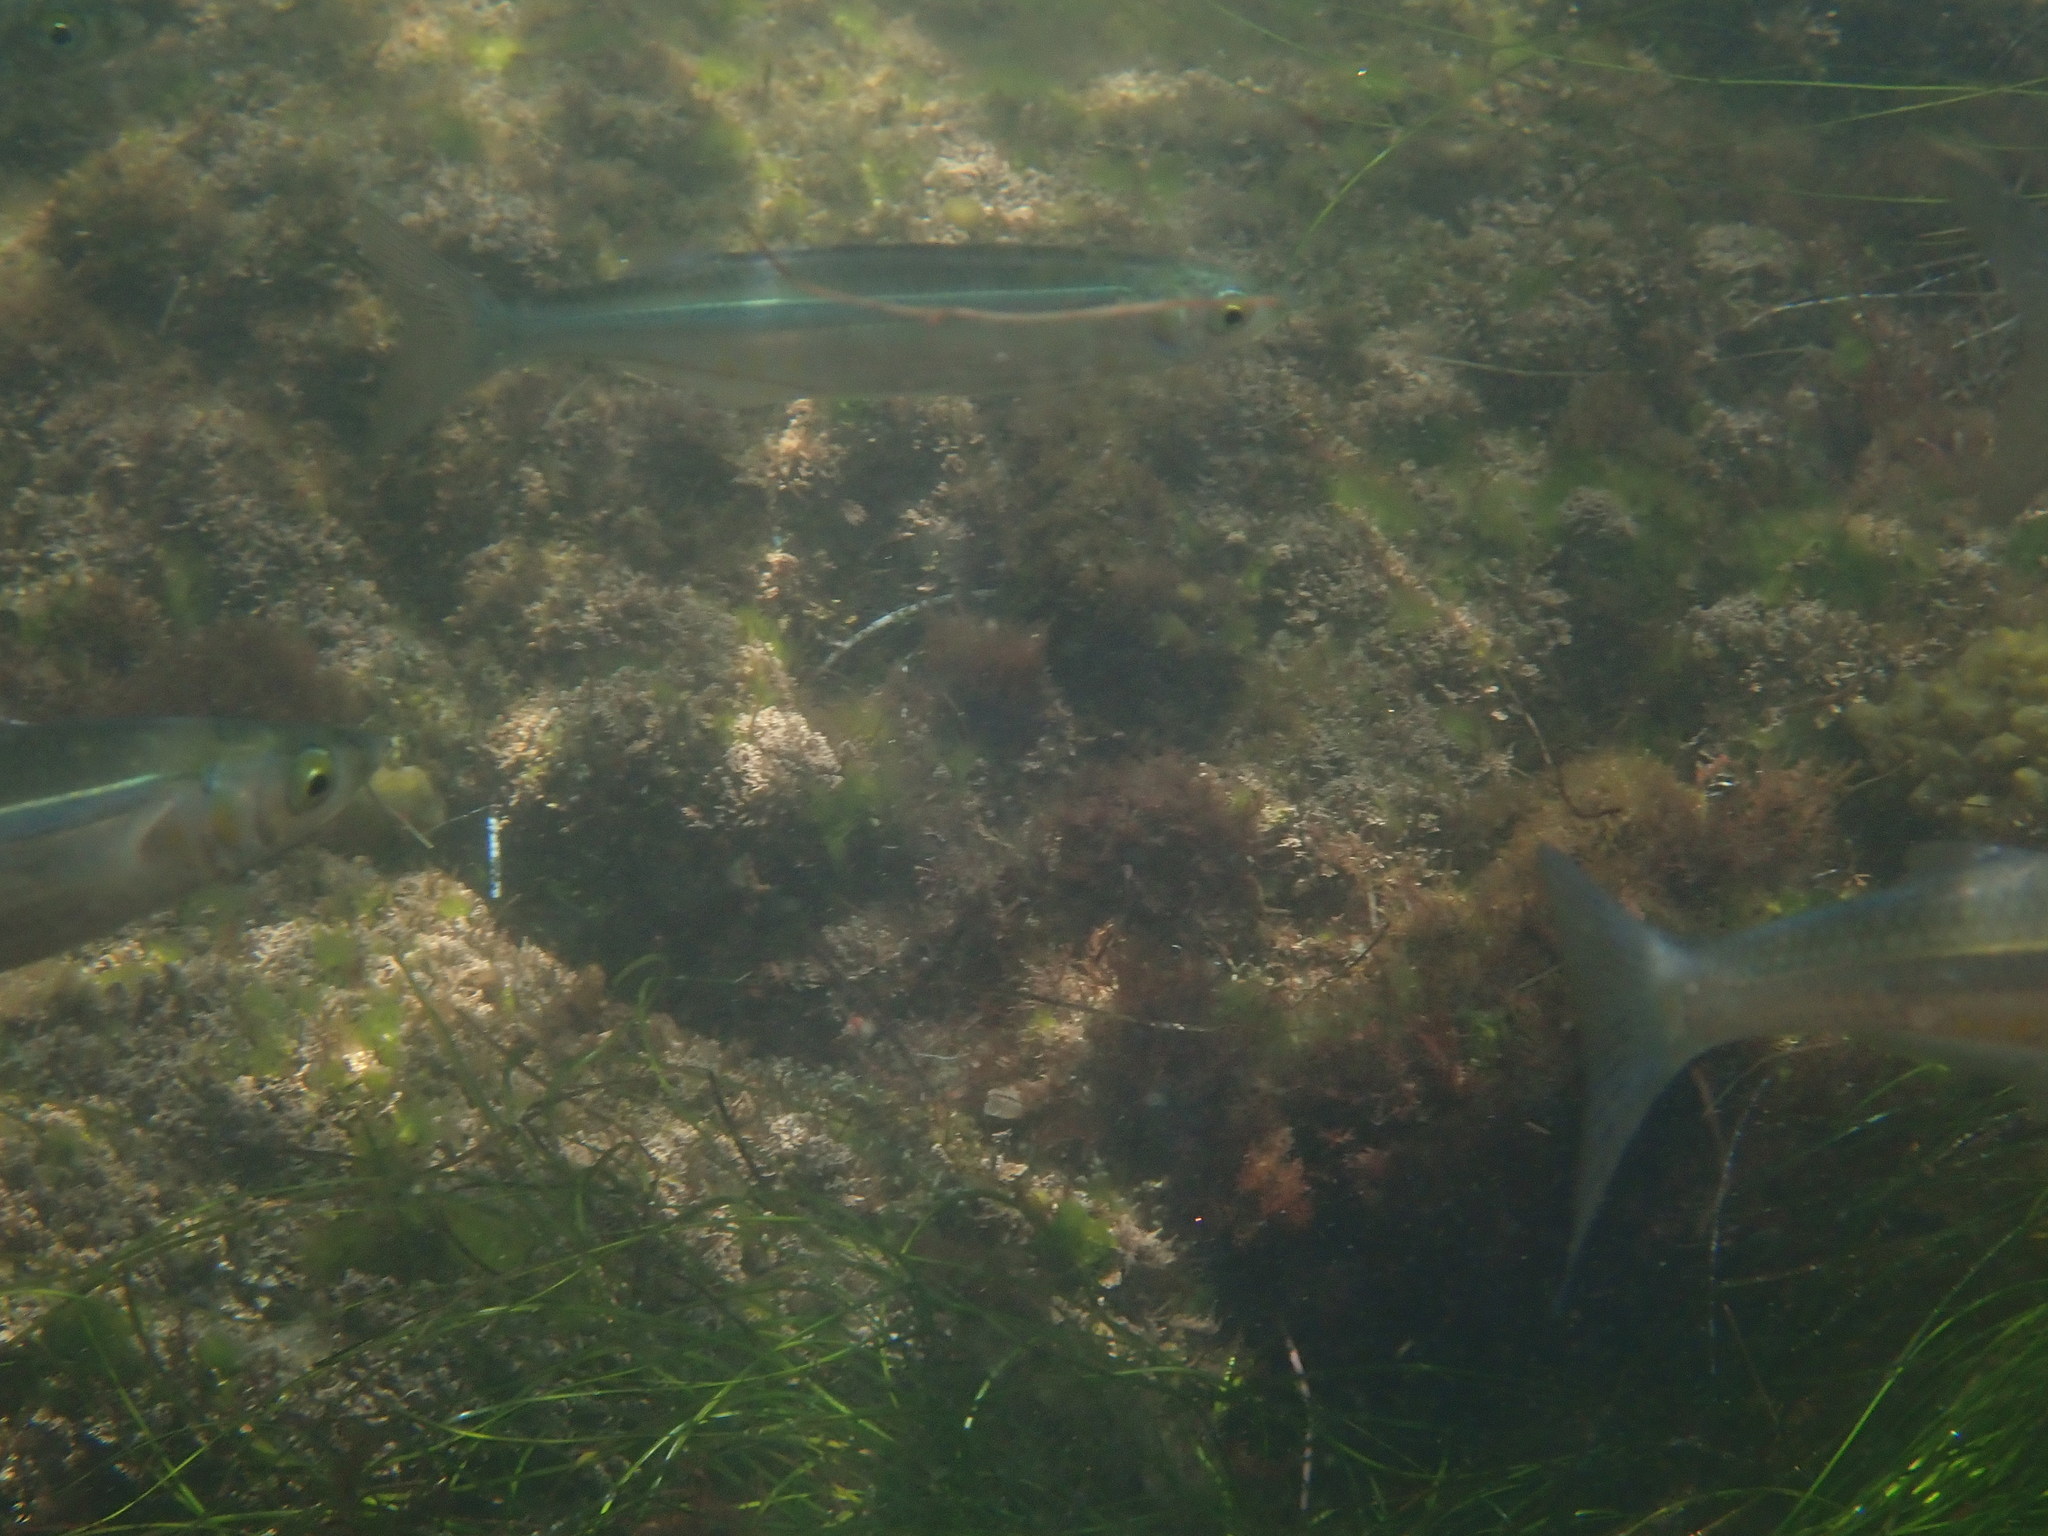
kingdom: Animalia
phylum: Chordata
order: Atheriniformes
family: Atherinopsidae
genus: Leuresthes
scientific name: Leuresthes tenuis
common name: California grunion
